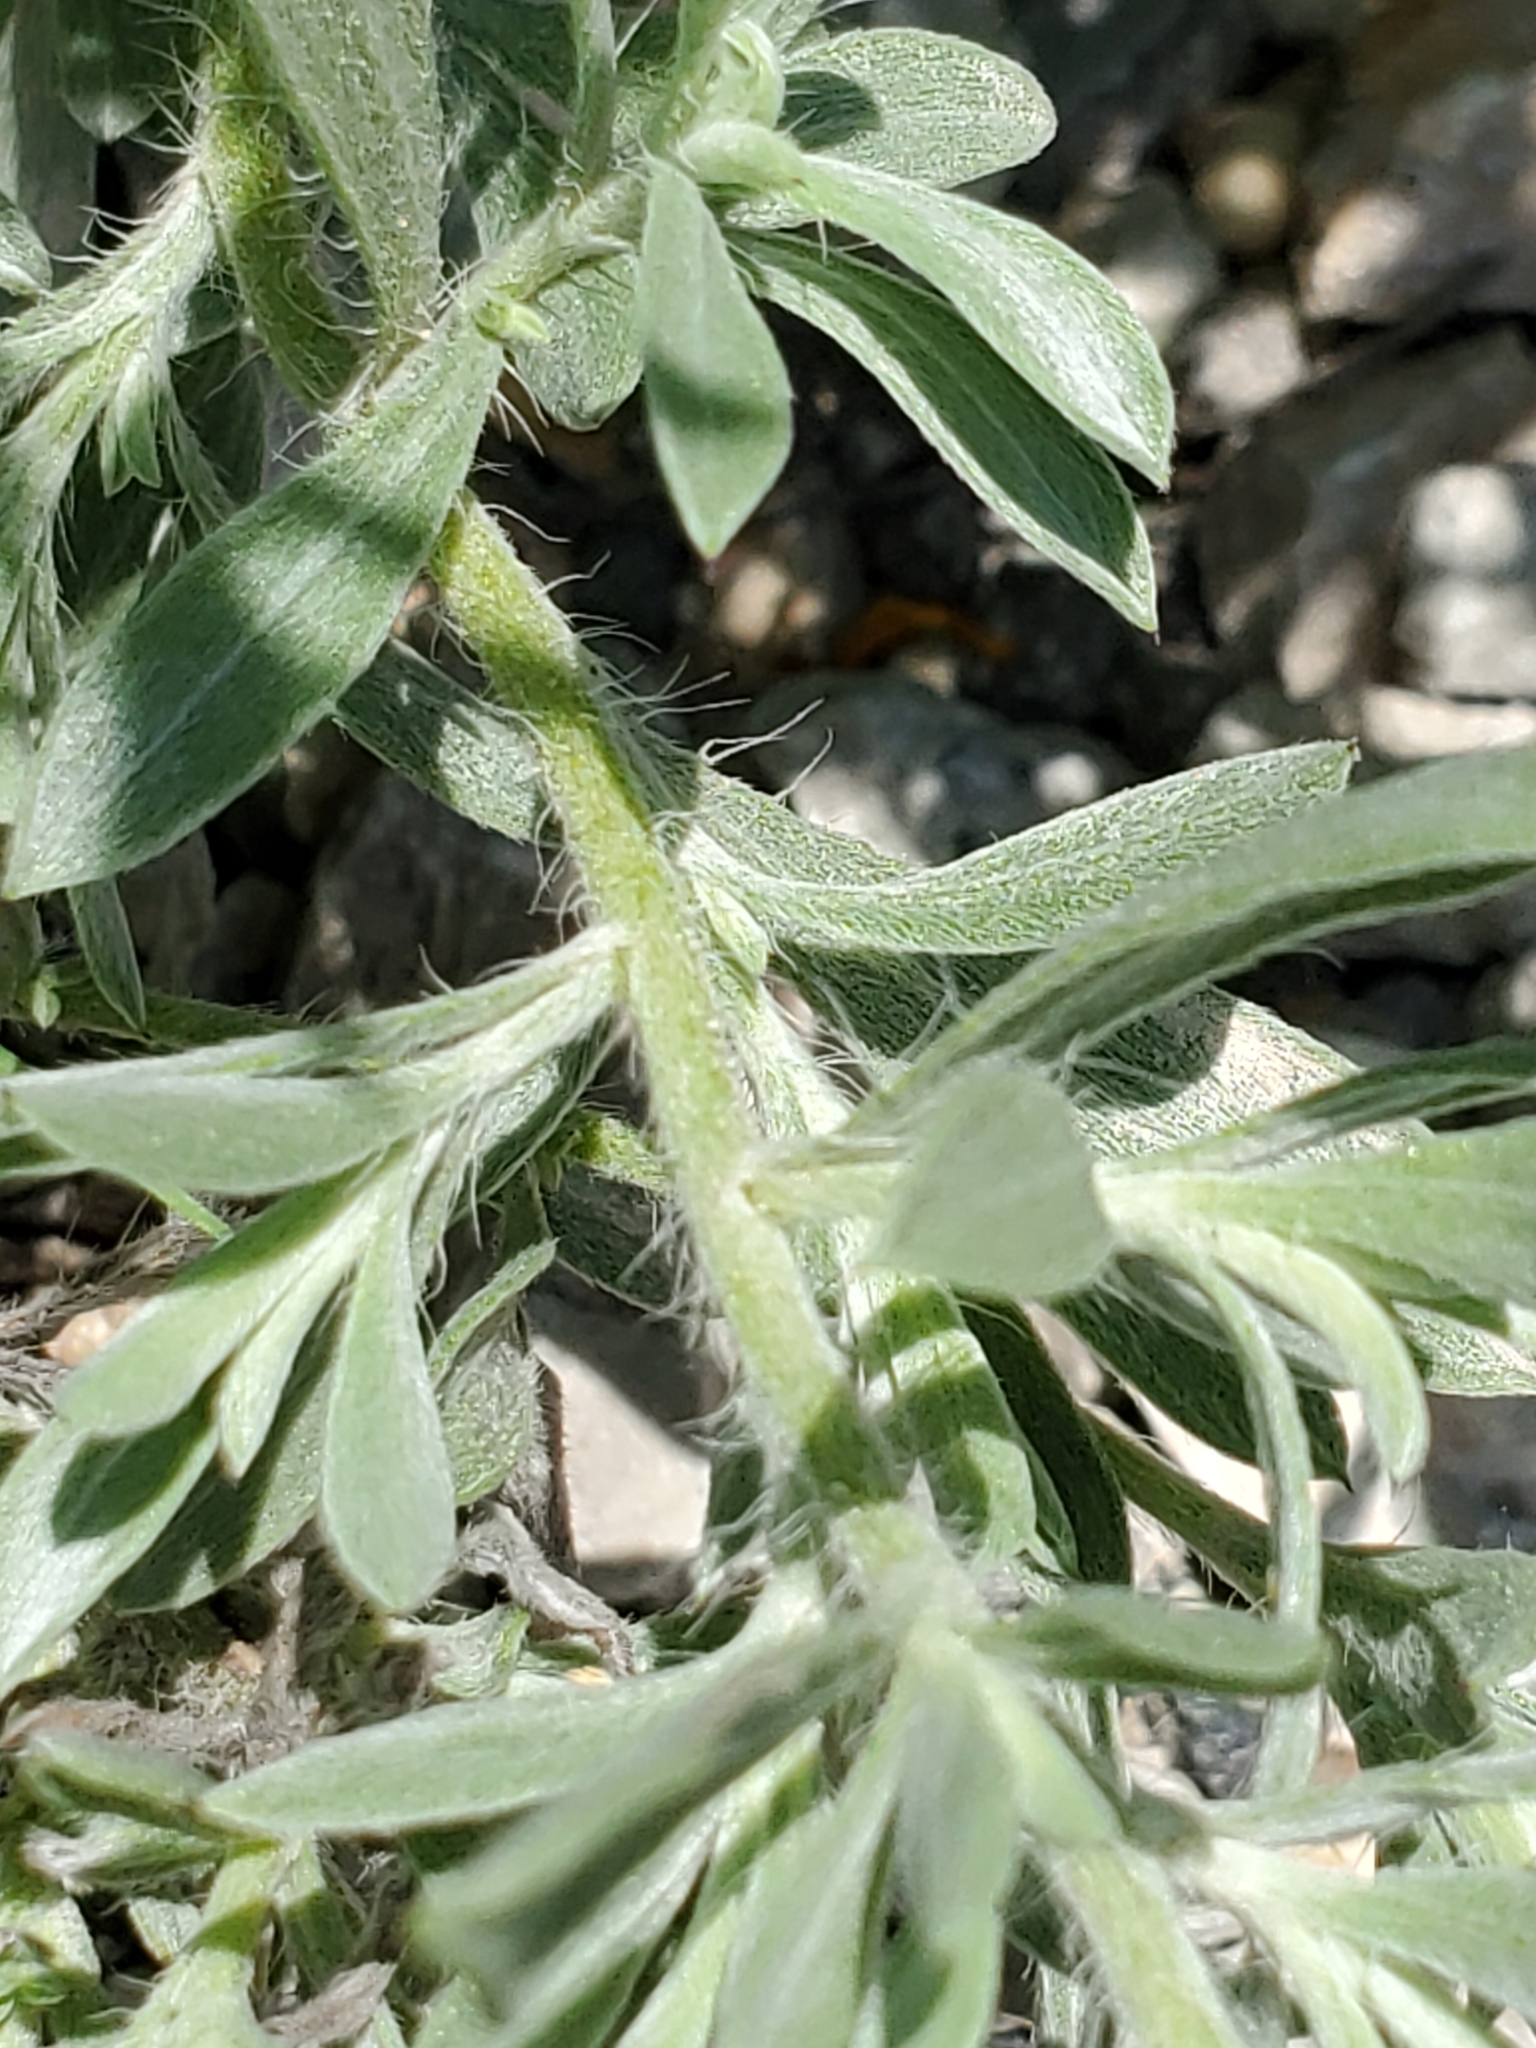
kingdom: Plantae
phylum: Tracheophyta
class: Magnoliopsida
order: Asterales
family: Asteraceae
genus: Heterotheca
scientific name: Heterotheca canescens
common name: Hoary golden-aster
